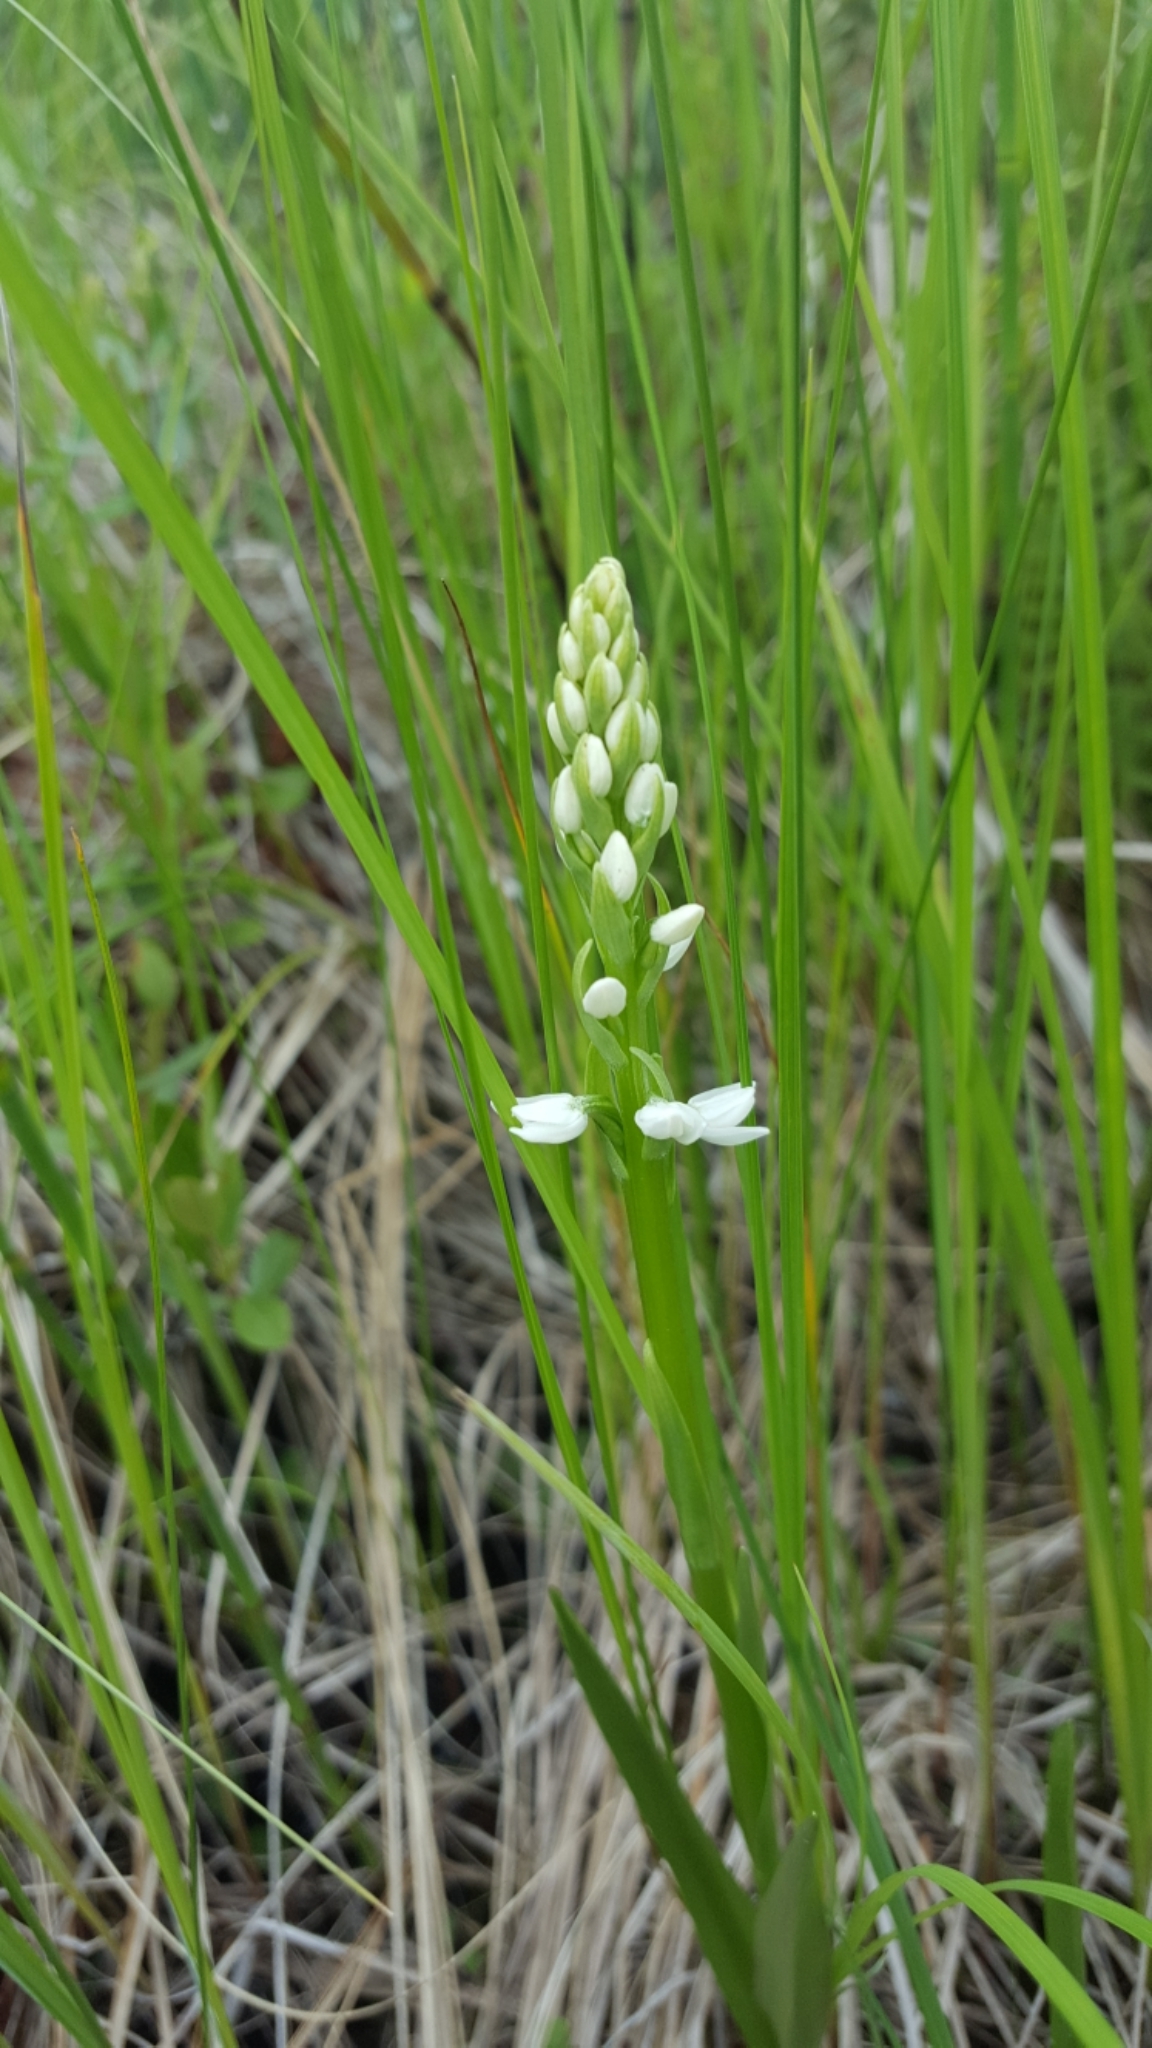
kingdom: Plantae
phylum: Tracheophyta
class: Liliopsida
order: Asparagales
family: Orchidaceae
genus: Platanthera
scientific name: Platanthera dilatata
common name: Bog candles
